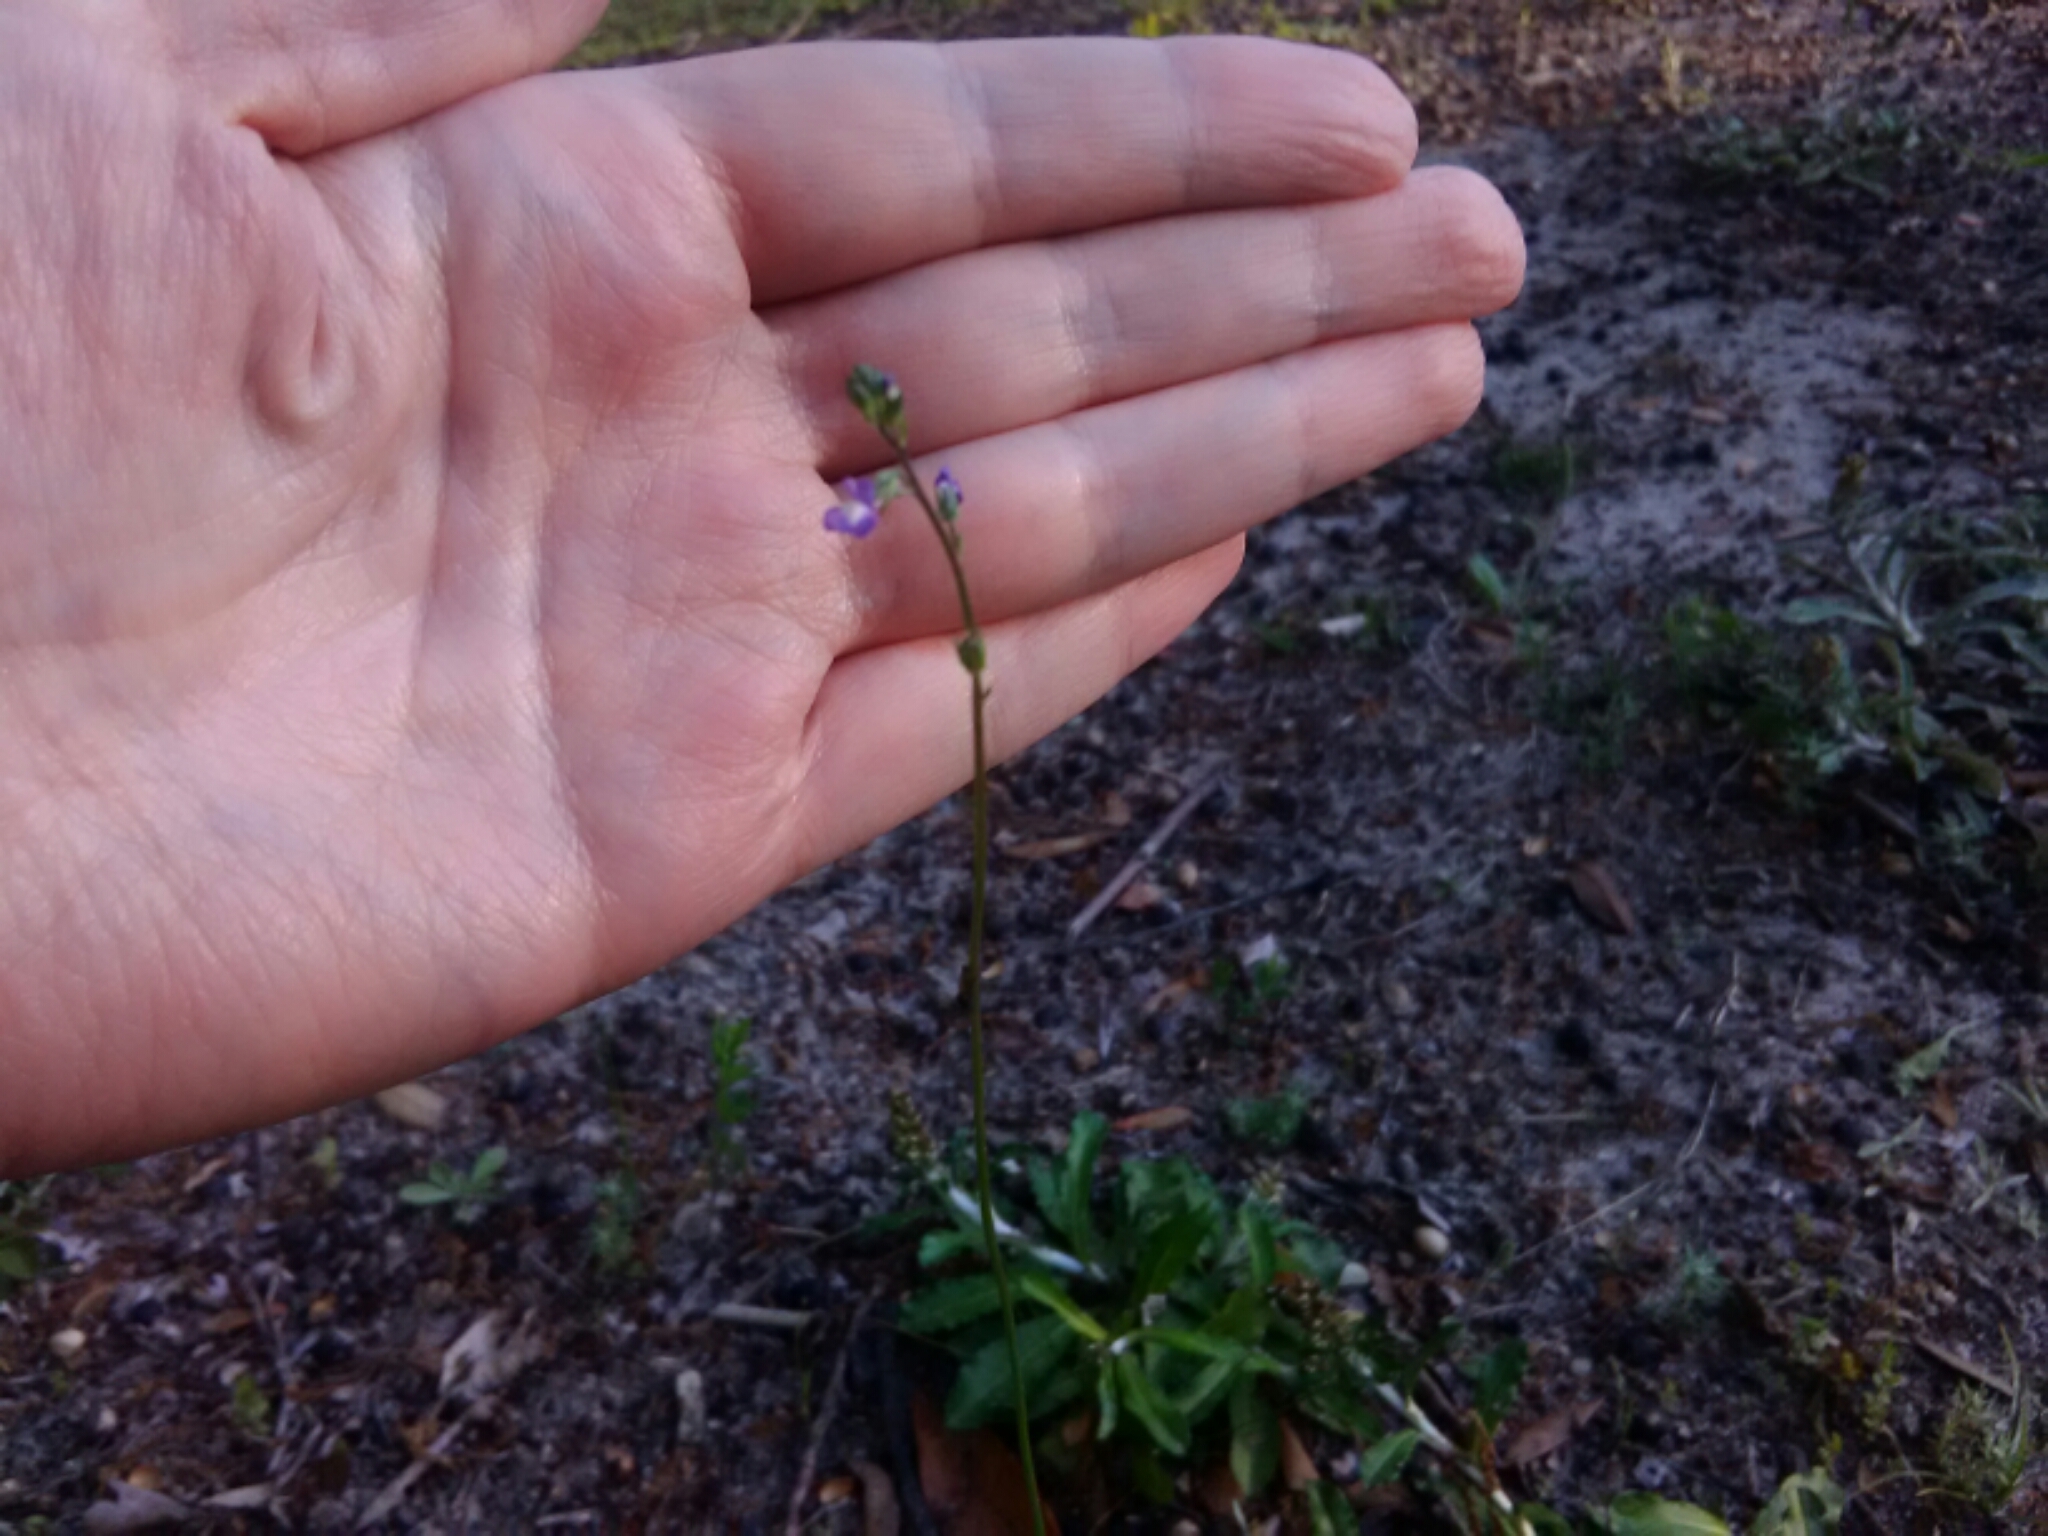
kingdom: Plantae
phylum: Tracheophyta
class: Magnoliopsida
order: Lamiales
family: Plantaginaceae
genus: Nuttallanthus
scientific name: Nuttallanthus canadensis
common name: Blue toadflax
